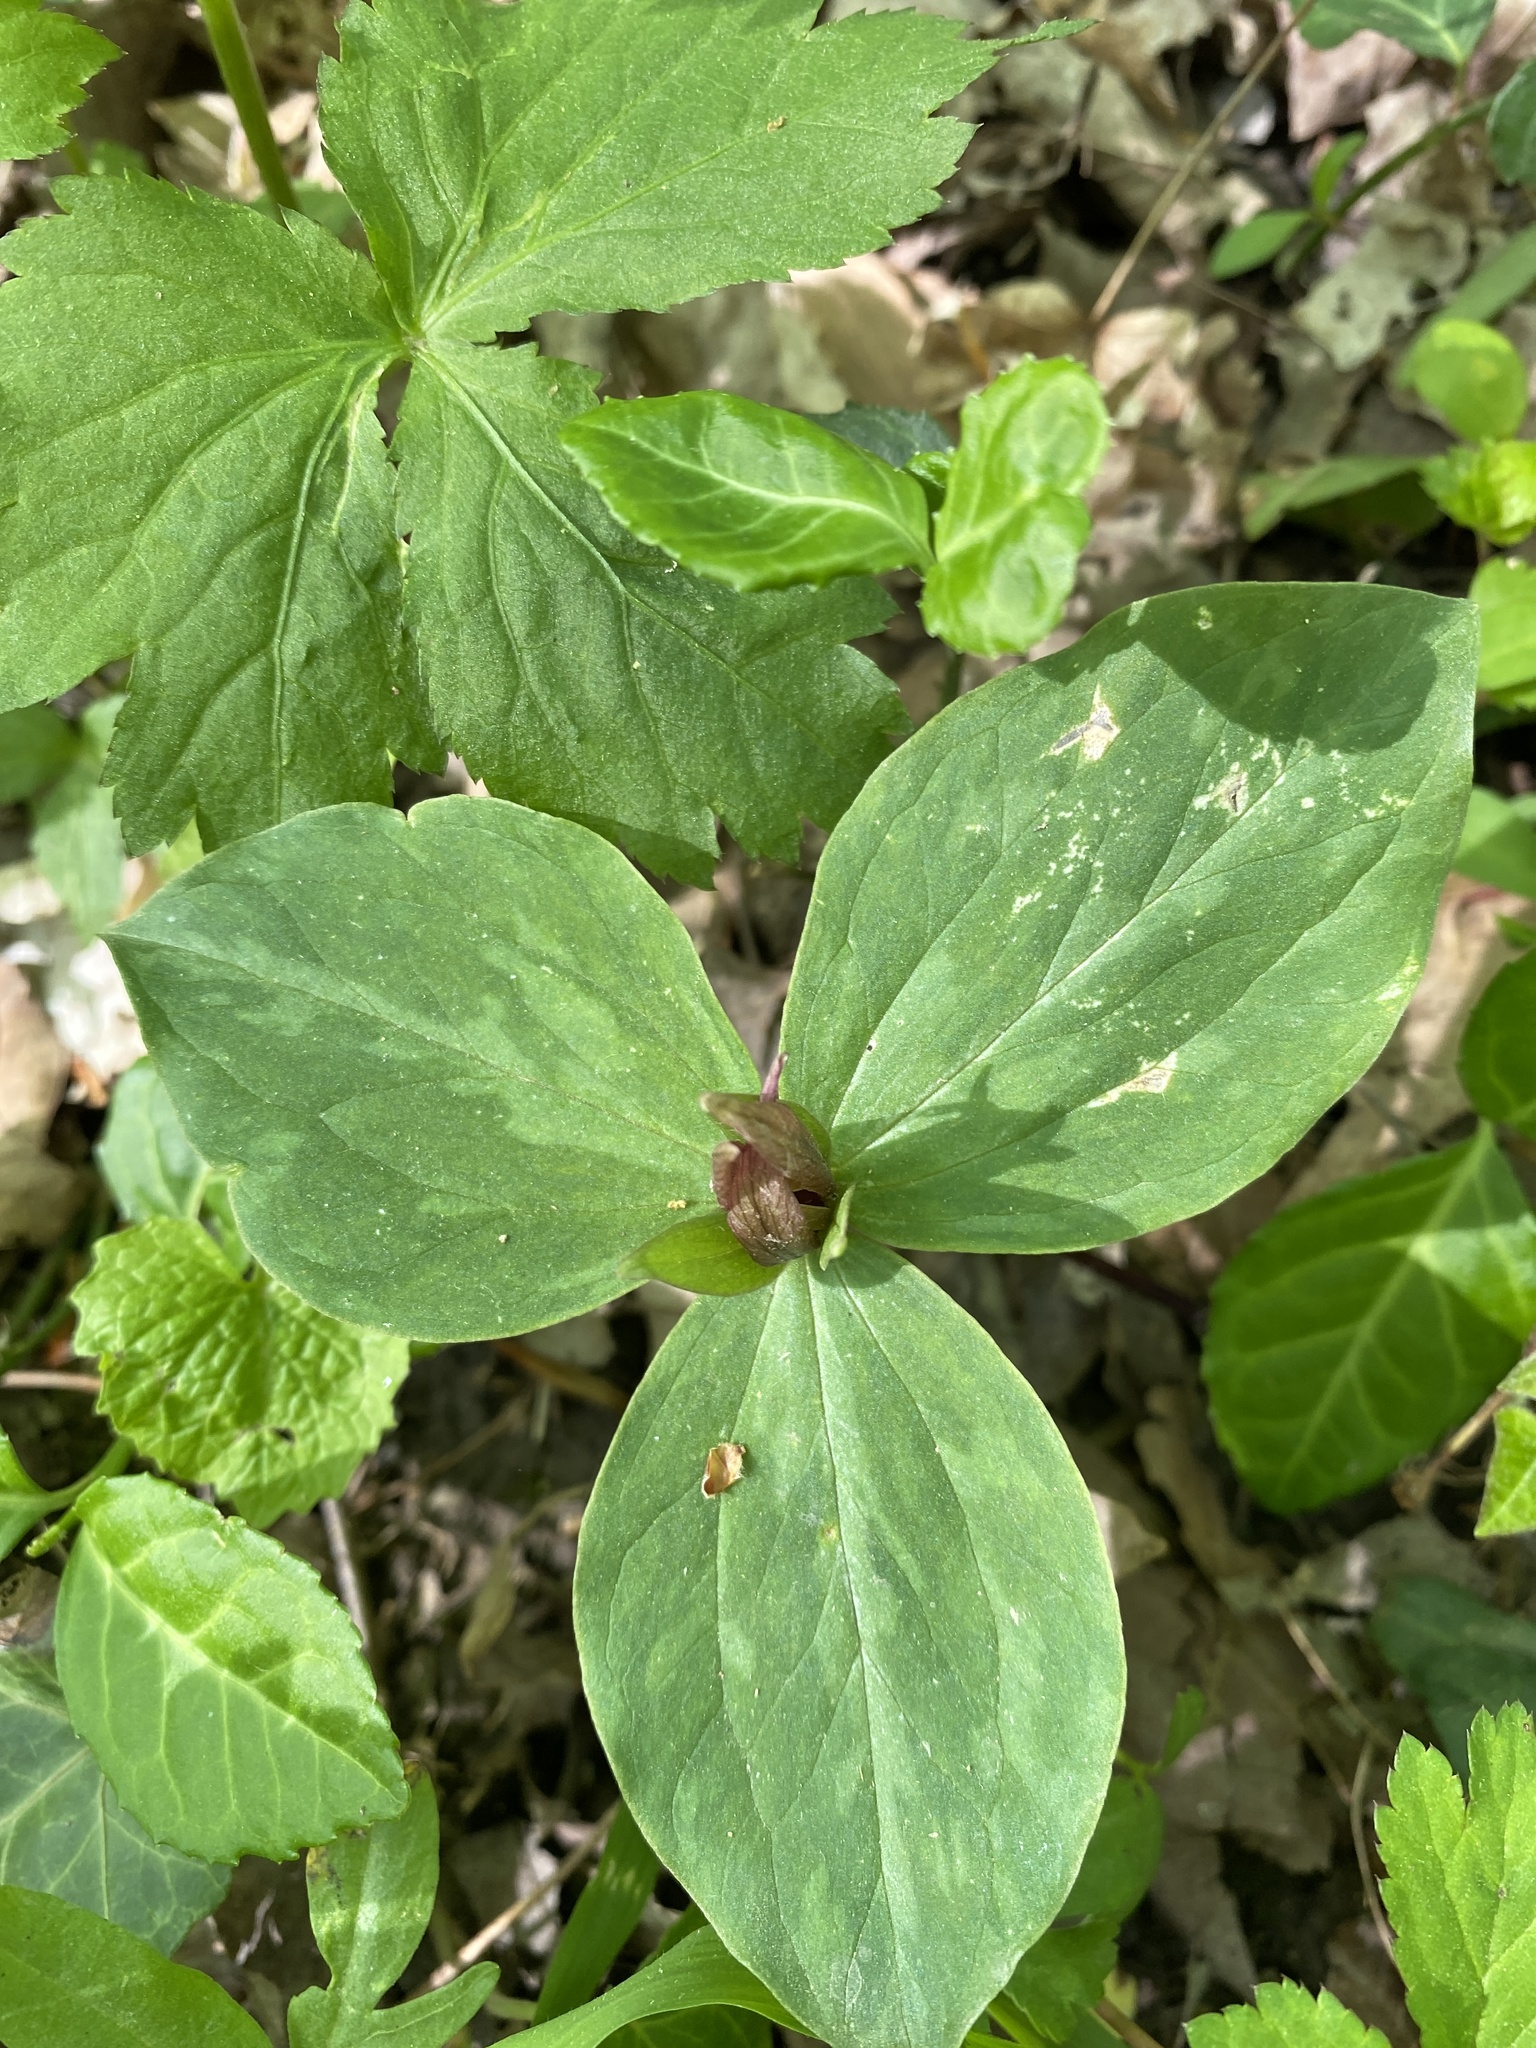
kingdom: Plantae
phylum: Tracheophyta
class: Liliopsida
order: Liliales
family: Melanthiaceae
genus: Trillium
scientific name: Trillium sessile
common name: Sessile trillium
